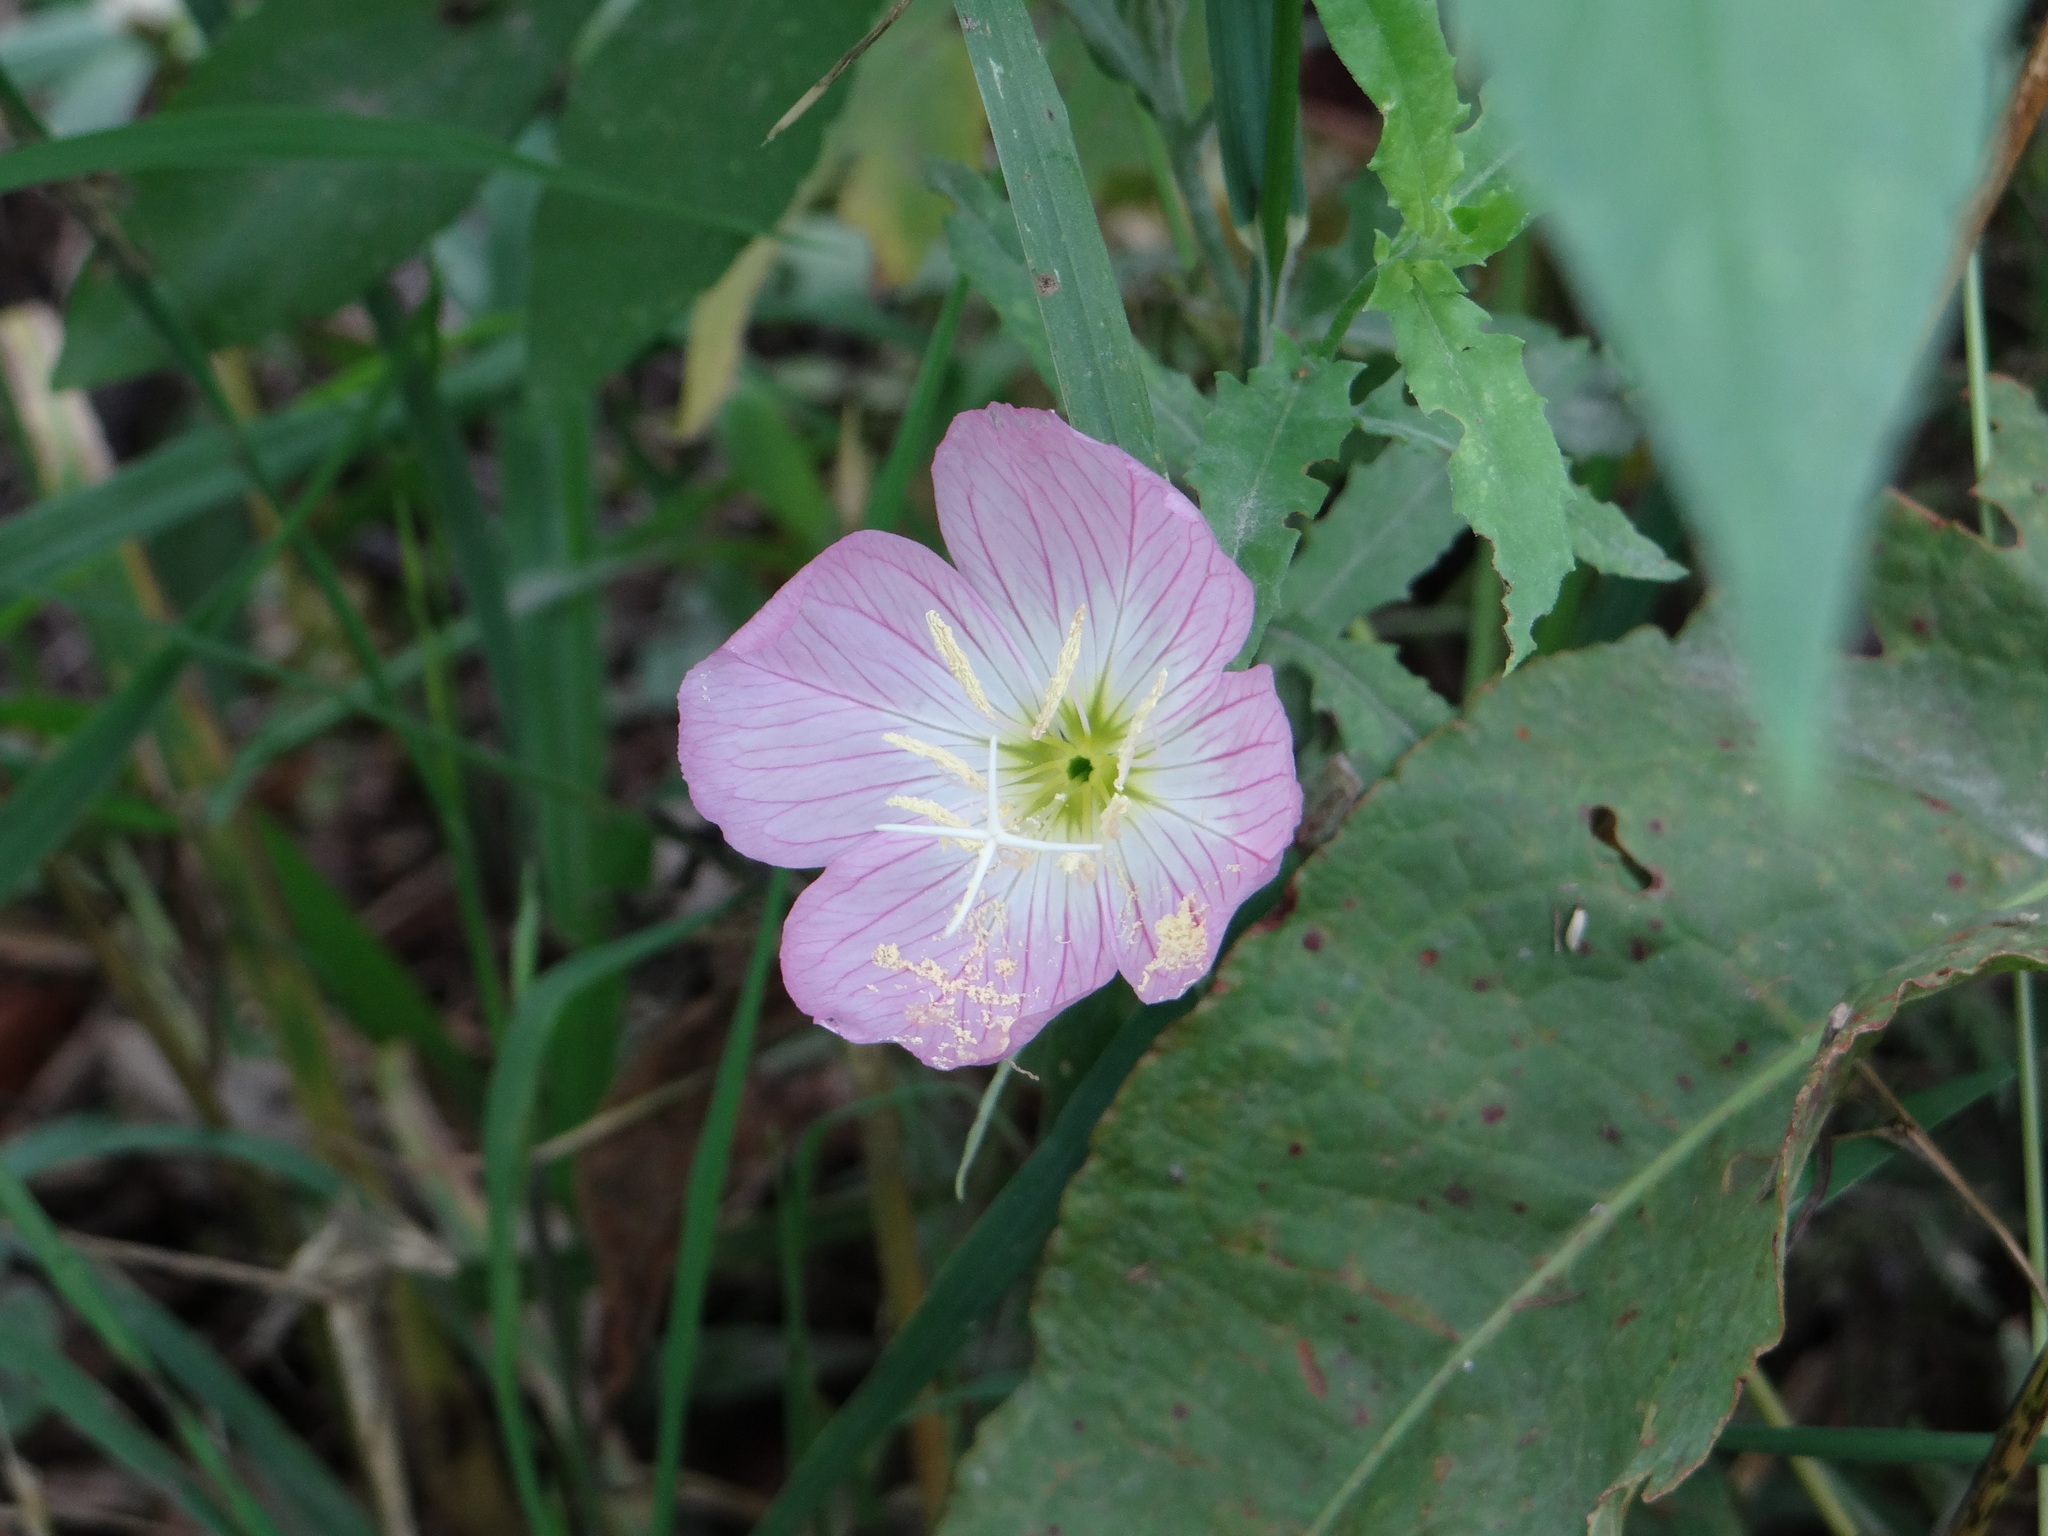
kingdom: Plantae
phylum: Tracheophyta
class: Magnoliopsida
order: Myrtales
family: Onagraceae
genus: Oenothera
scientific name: Oenothera speciosa
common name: White evening-primrose
